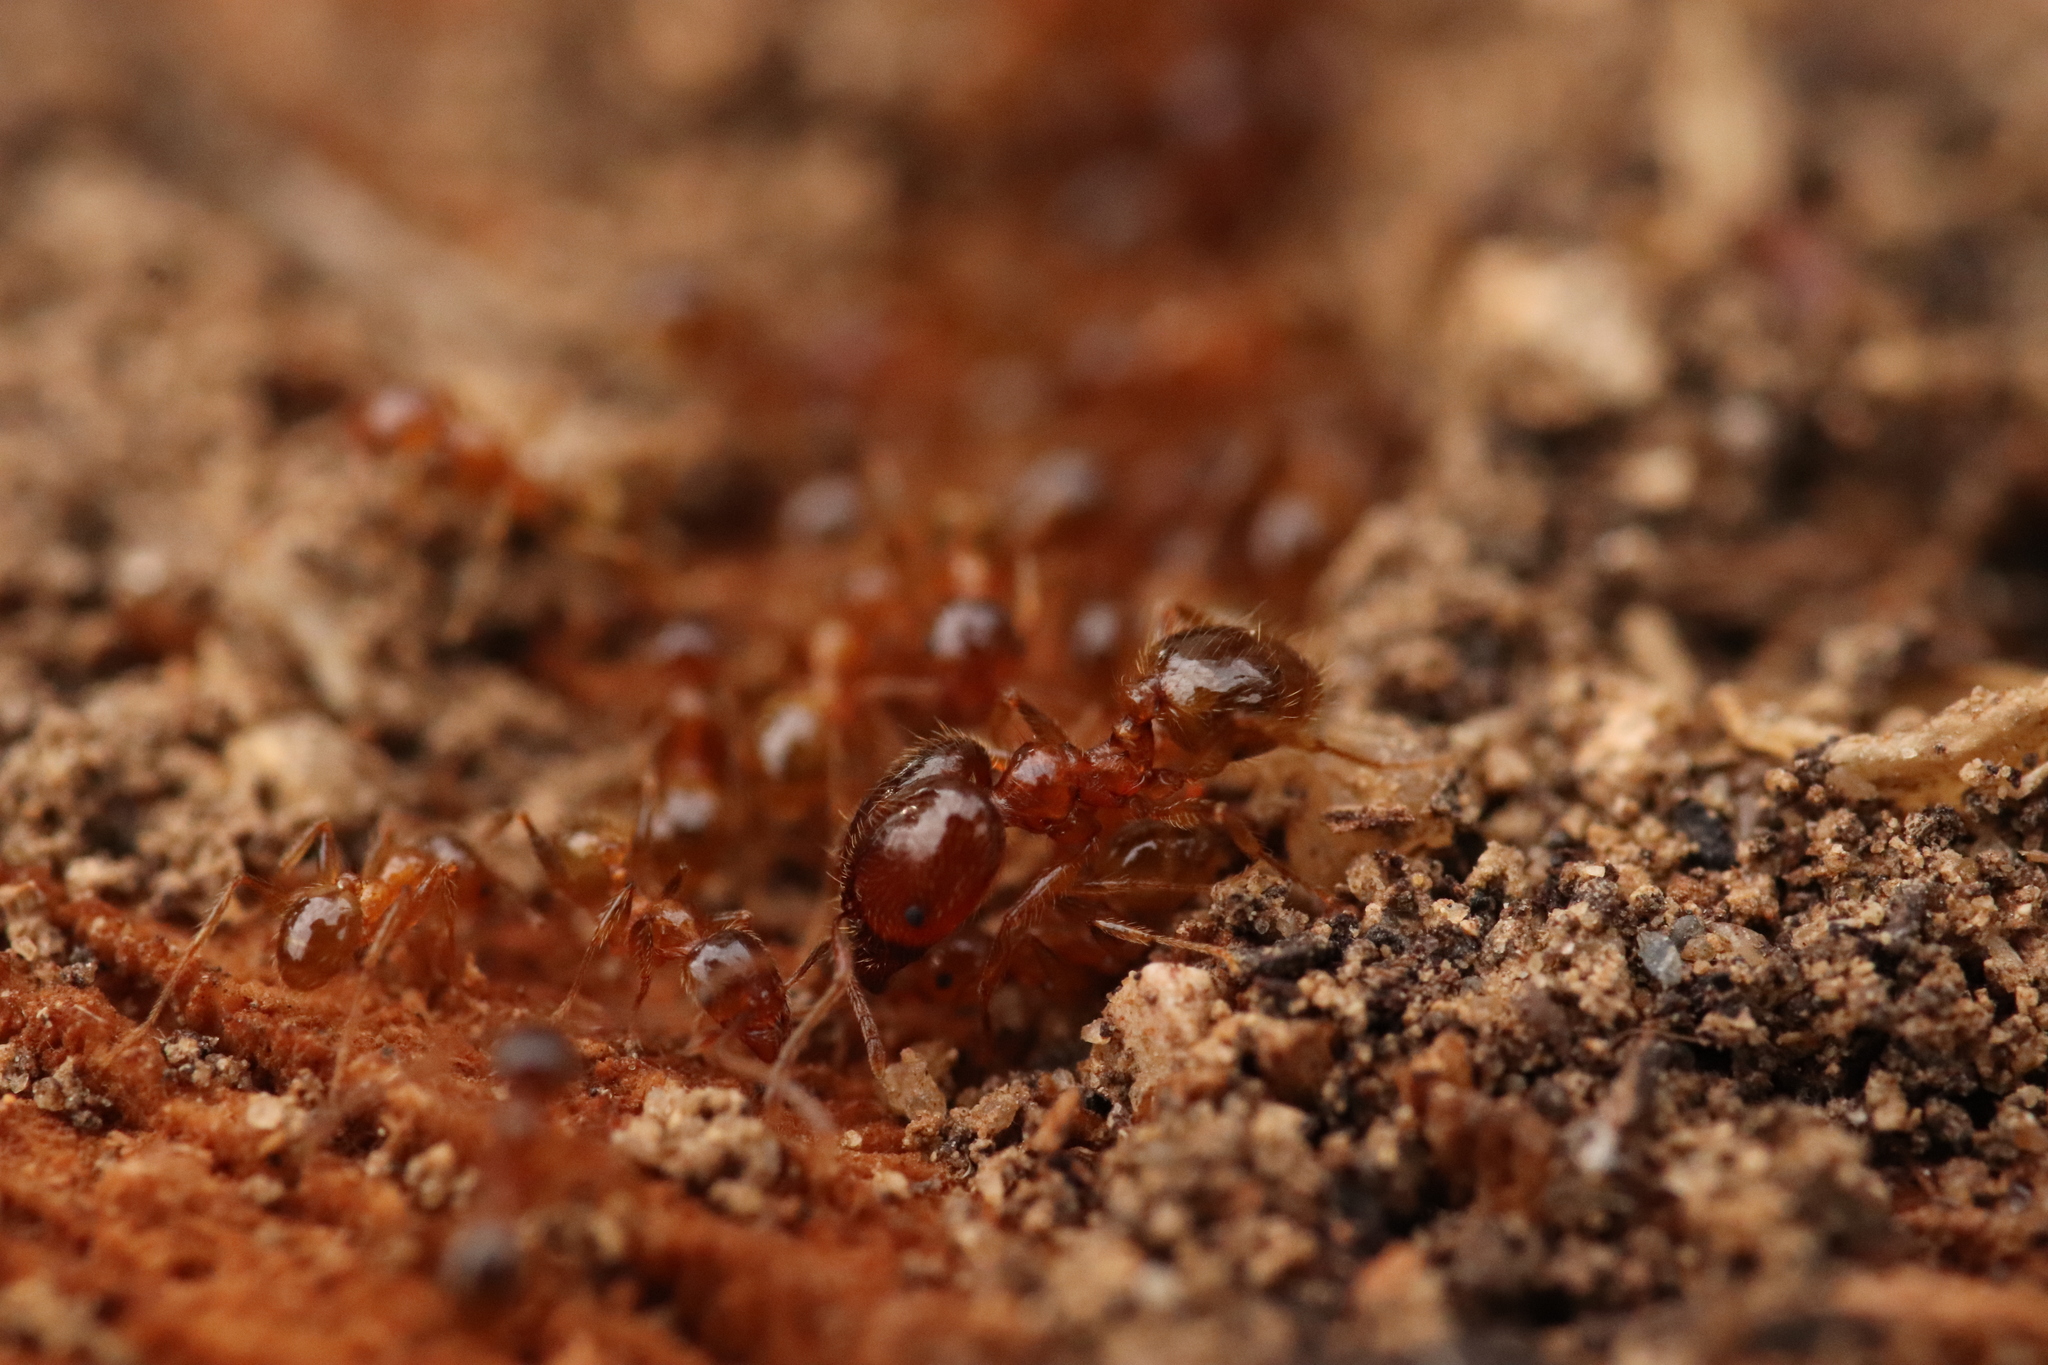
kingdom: Animalia
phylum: Arthropoda
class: Insecta
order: Hymenoptera
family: Formicidae
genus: Pheidole
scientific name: Pheidole pallidula
